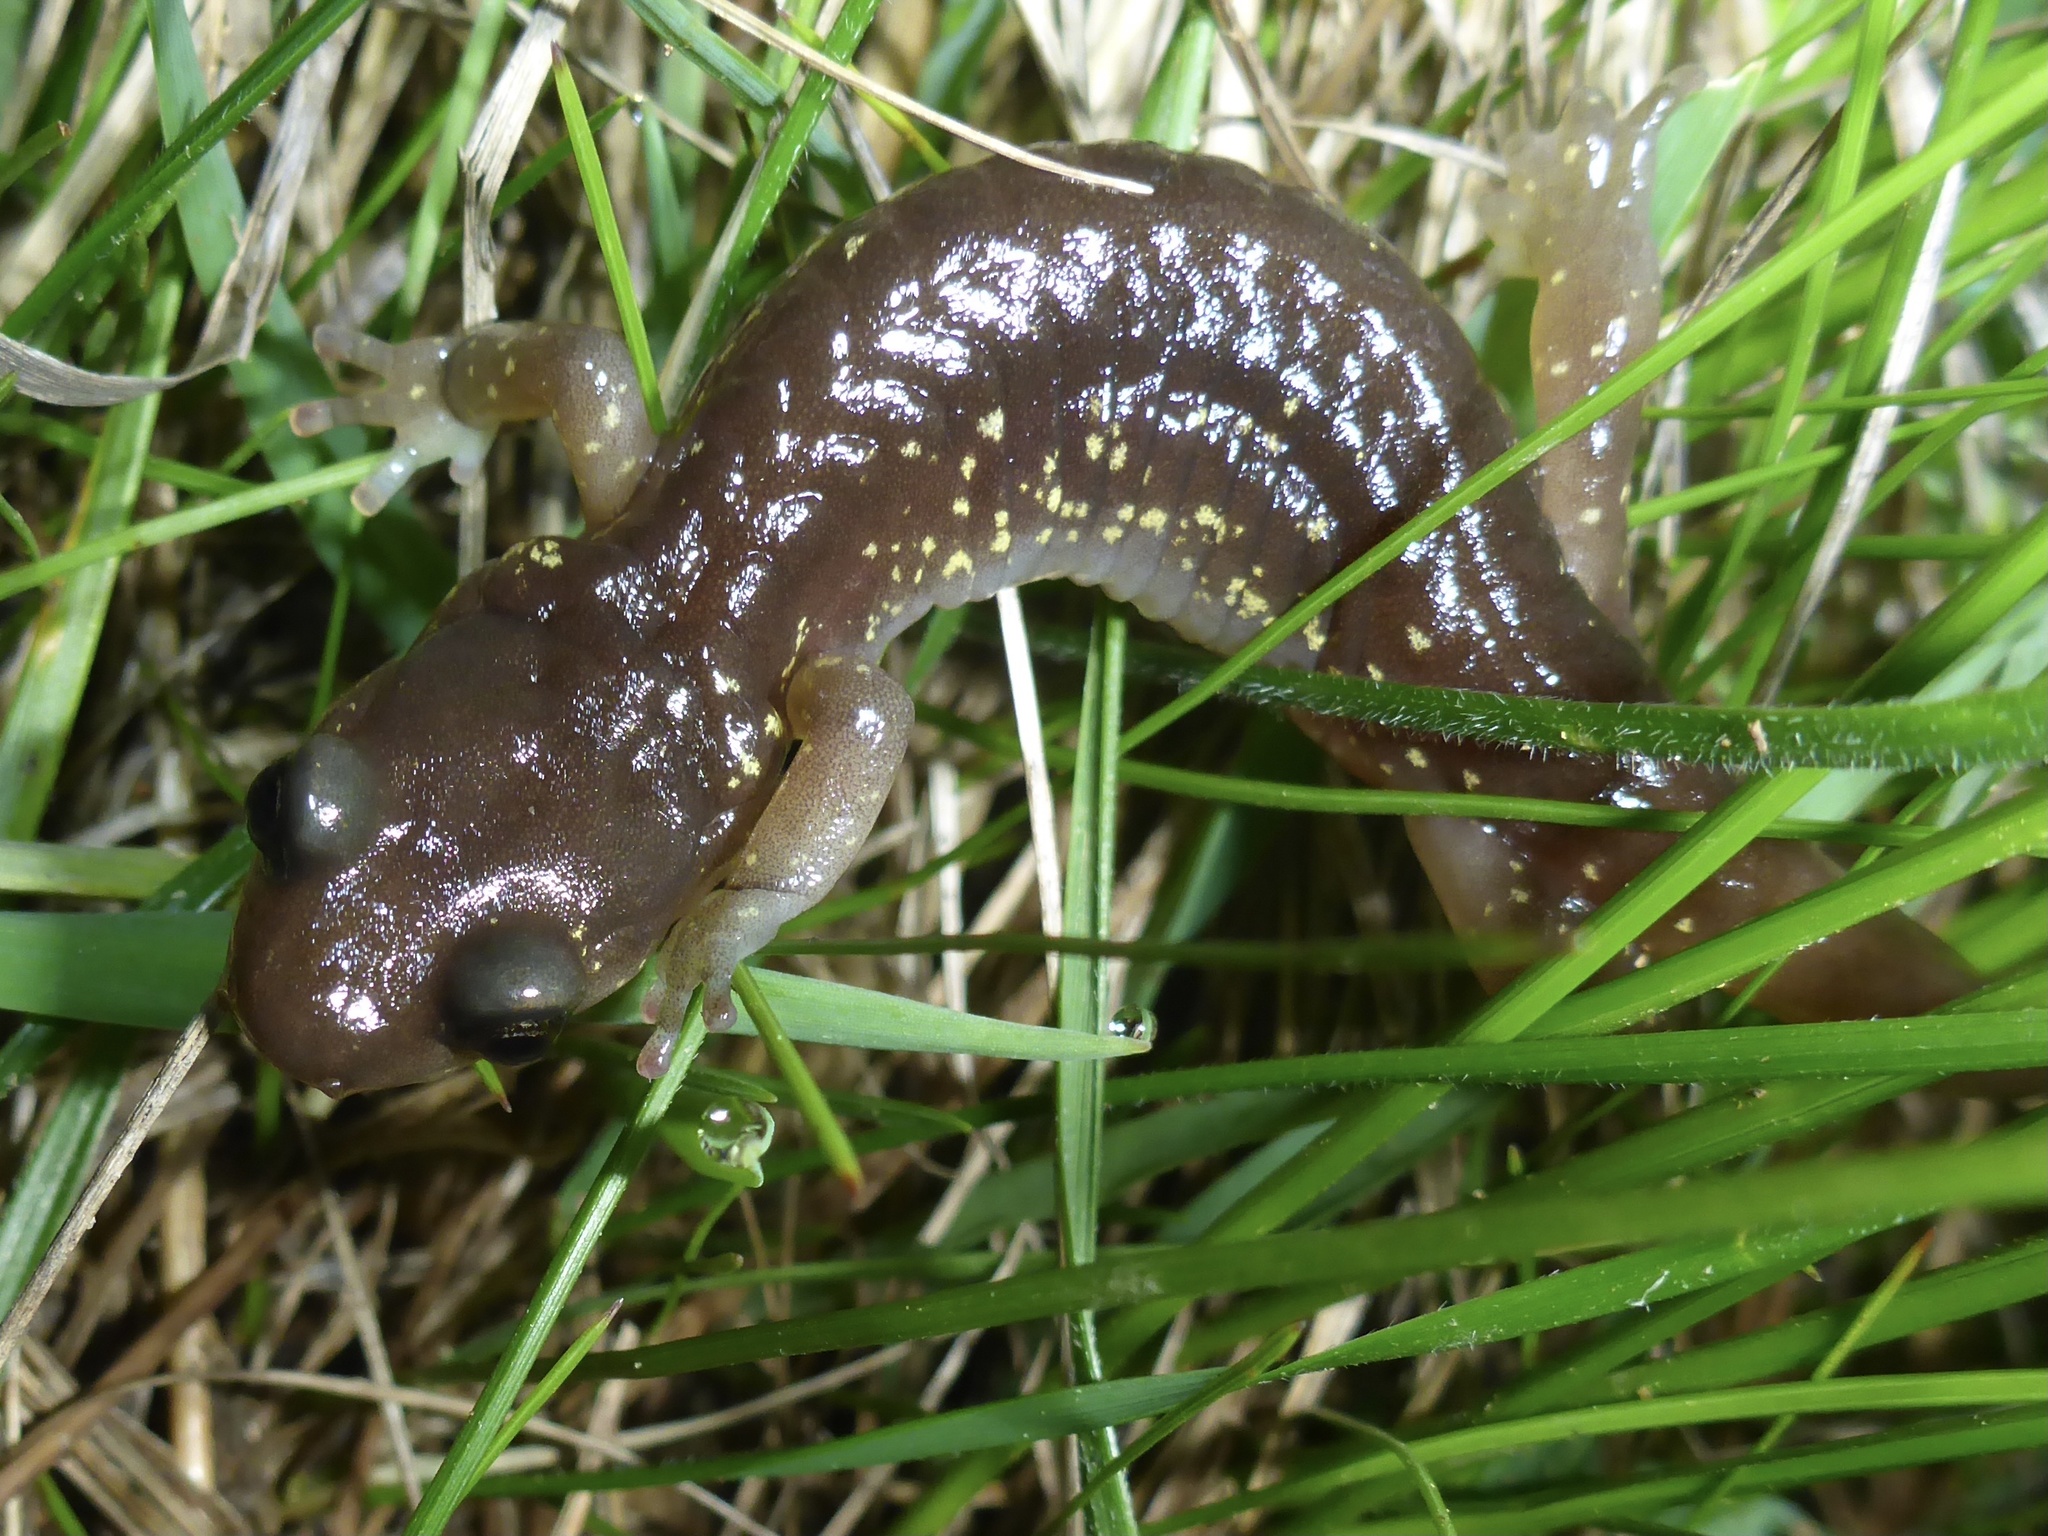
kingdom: Animalia
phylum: Chordata
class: Amphibia
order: Caudata
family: Plethodontidae
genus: Aneides
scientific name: Aneides lugubris
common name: Arboreal salamander
